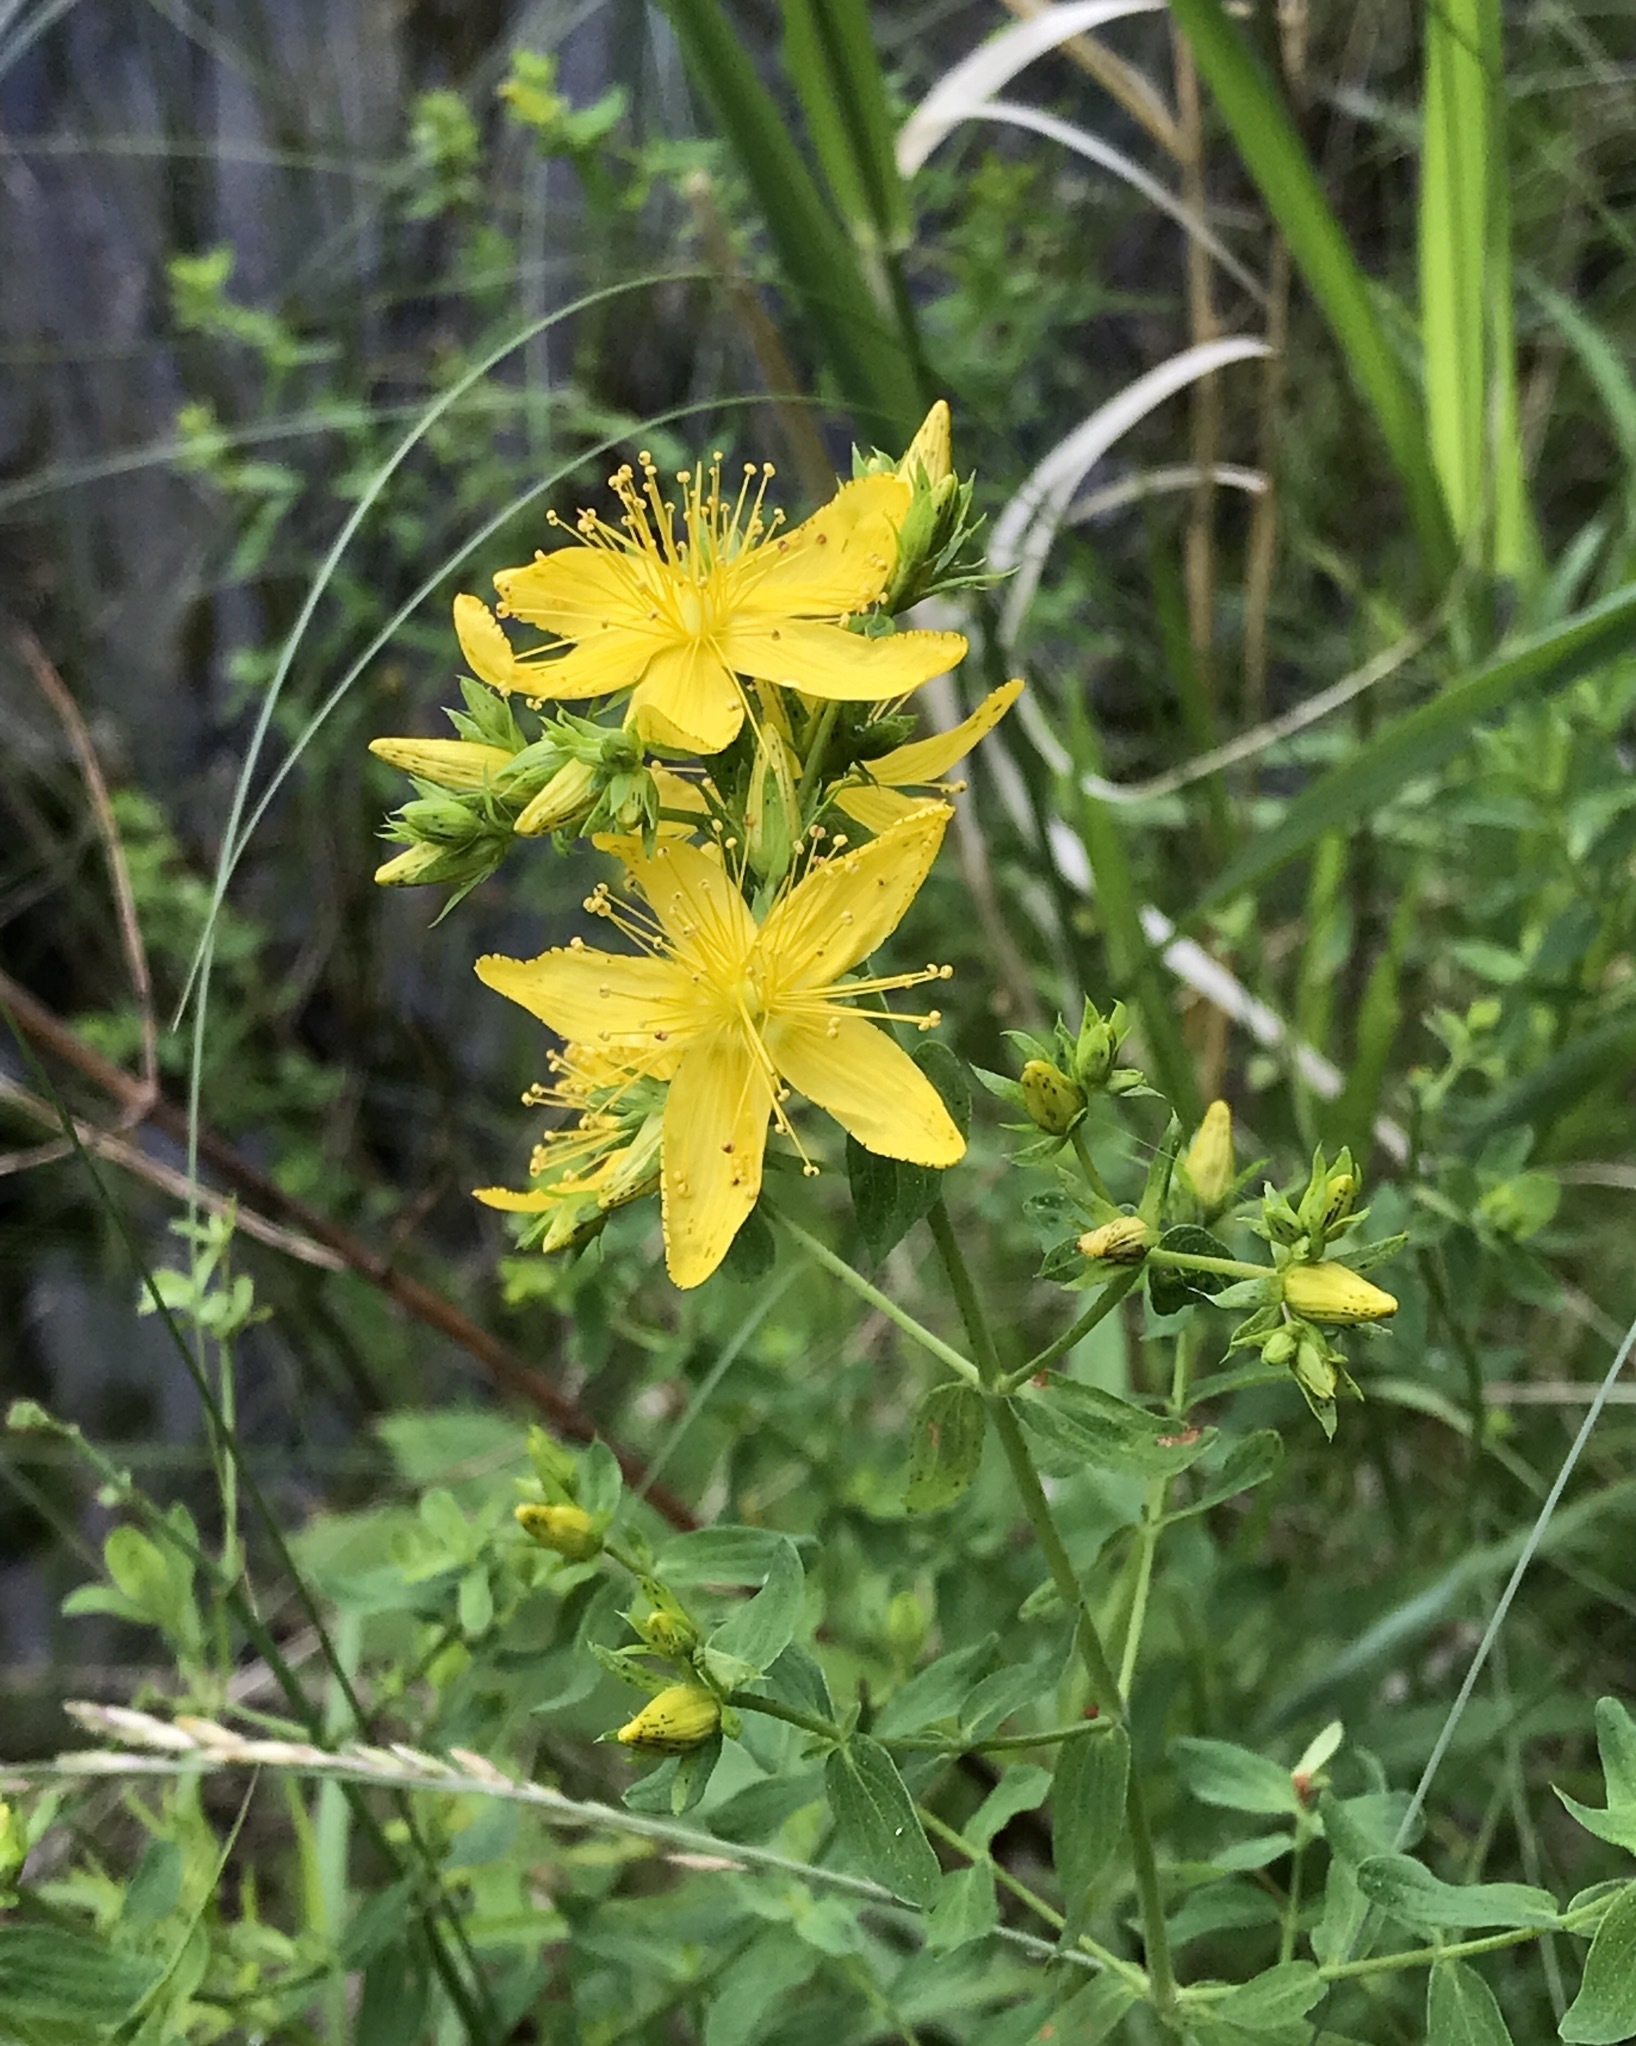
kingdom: Plantae
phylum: Tracheophyta
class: Magnoliopsida
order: Malpighiales
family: Hypericaceae
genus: Hypericum
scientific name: Hypericum perforatum
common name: Common st. johnswort
